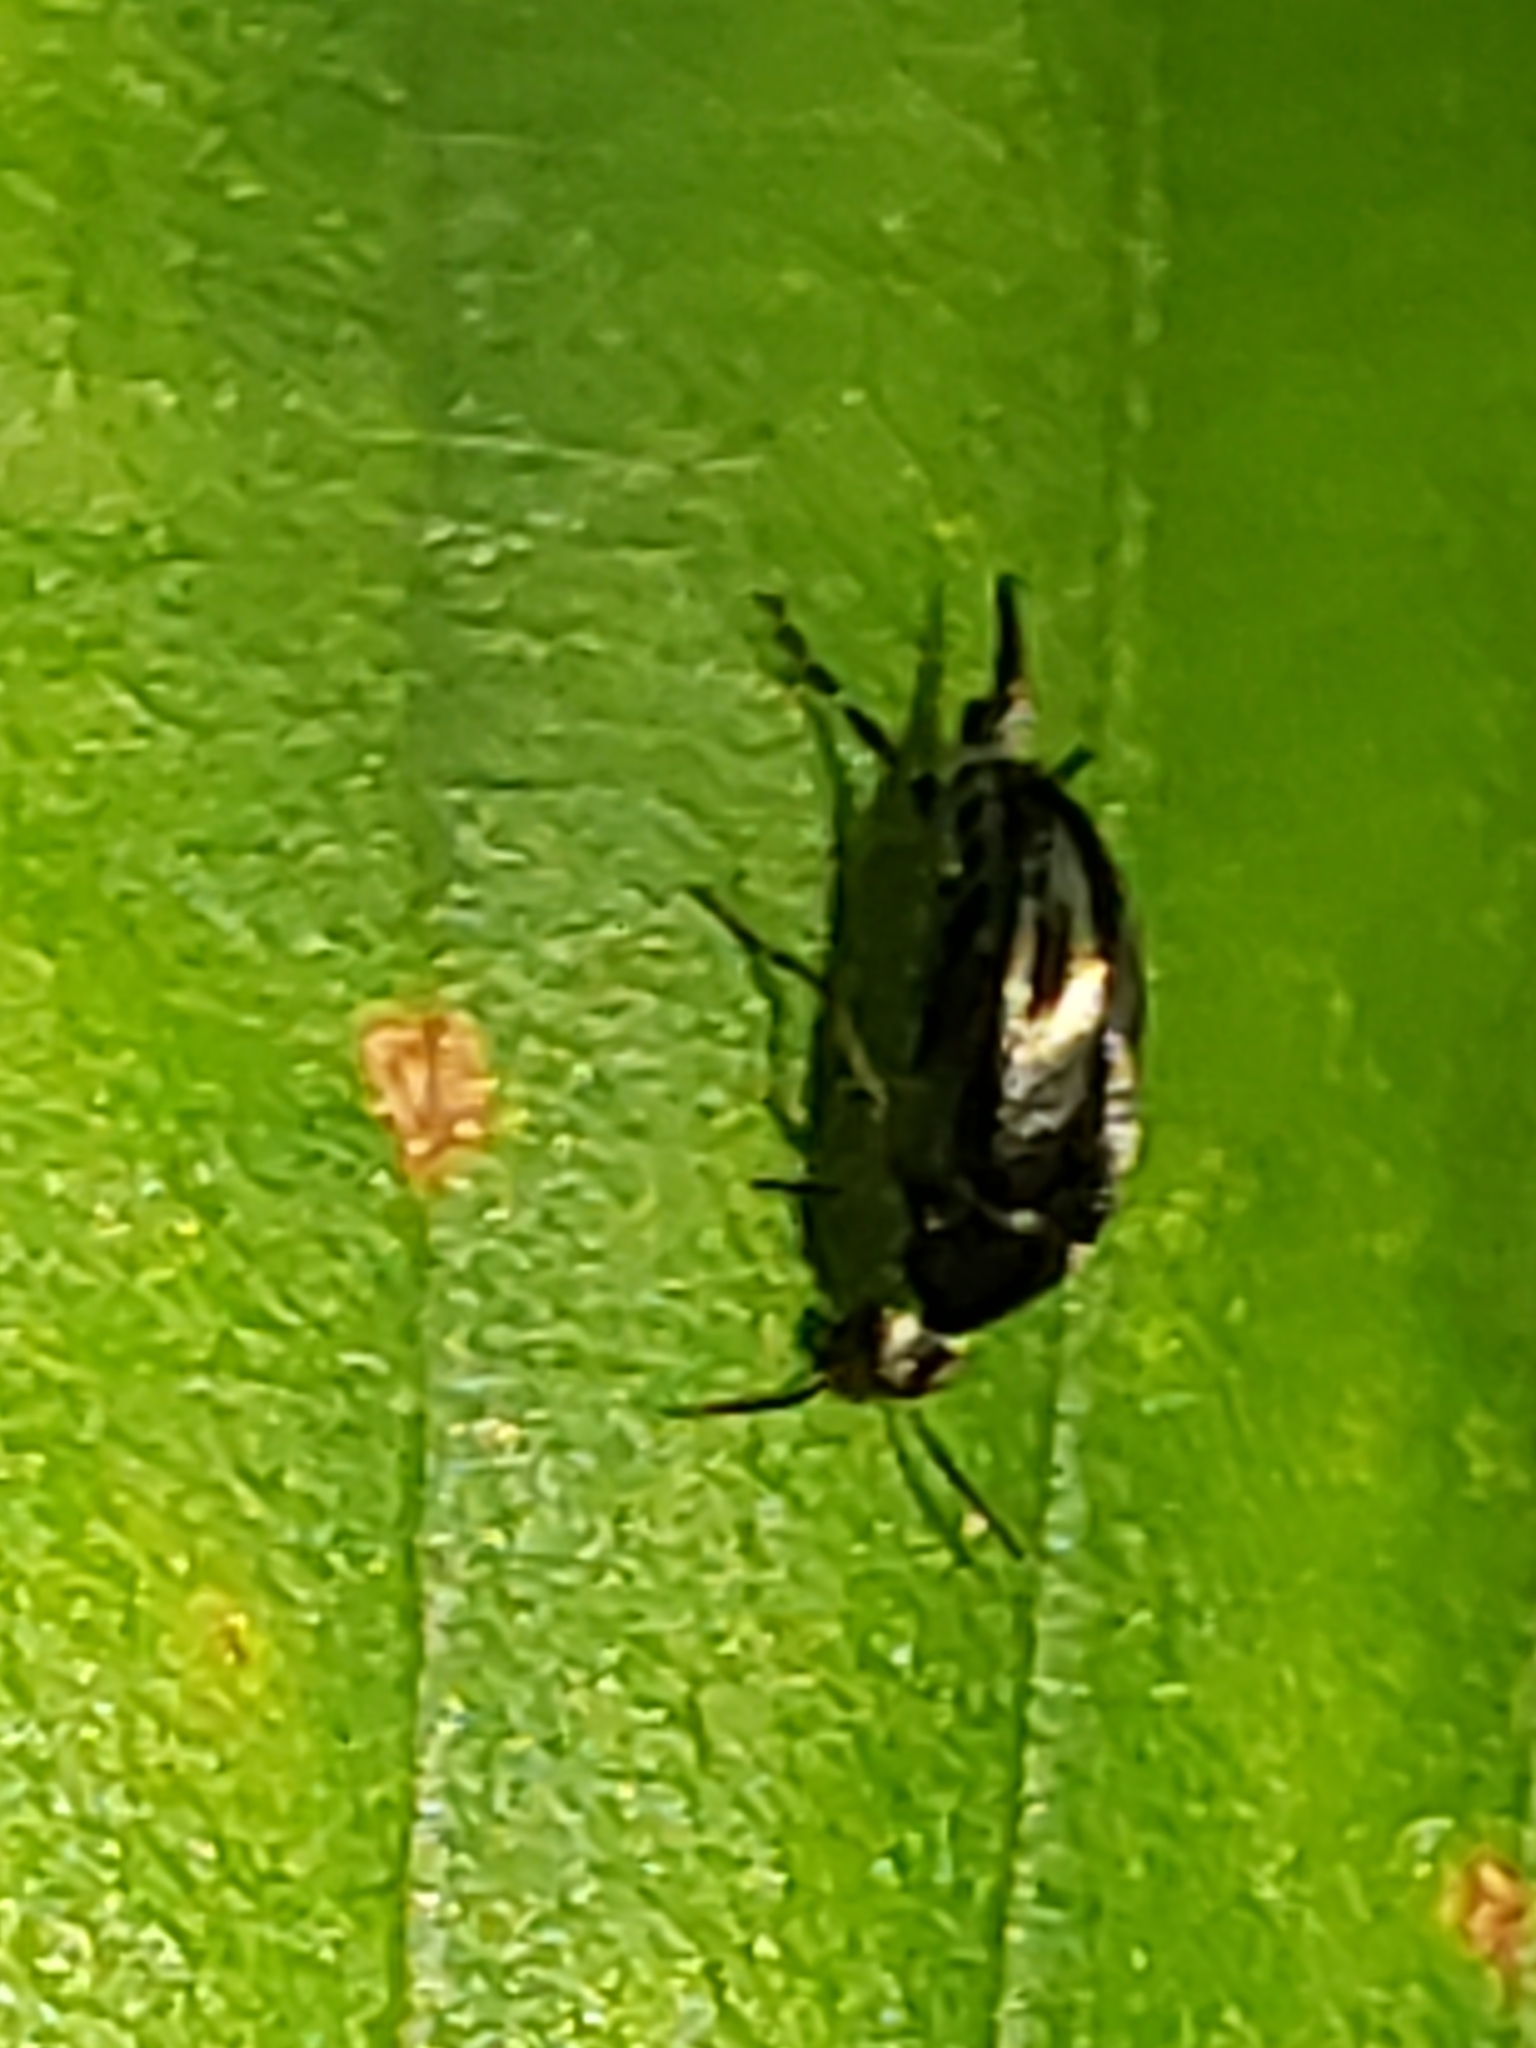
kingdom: Animalia
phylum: Arthropoda
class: Insecta
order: Coleoptera
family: Mordellidae
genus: Mordellistena
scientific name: Mordellistena syntaenia
